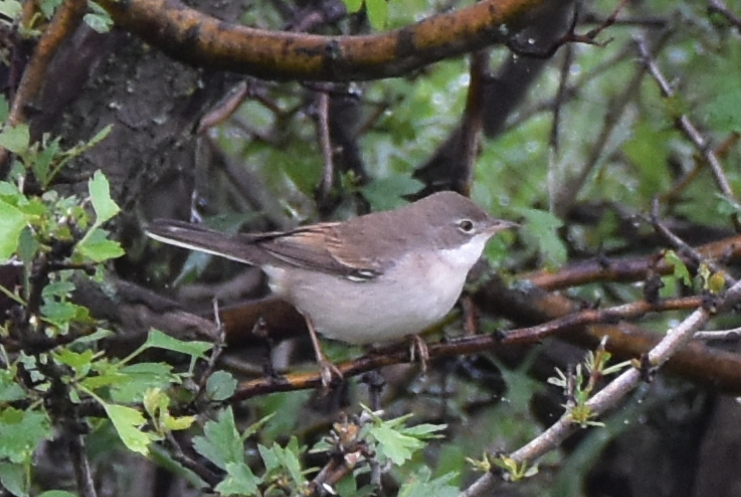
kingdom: Animalia
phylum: Chordata
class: Aves
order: Passeriformes
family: Sylviidae
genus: Sylvia
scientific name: Sylvia communis
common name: Common whitethroat
